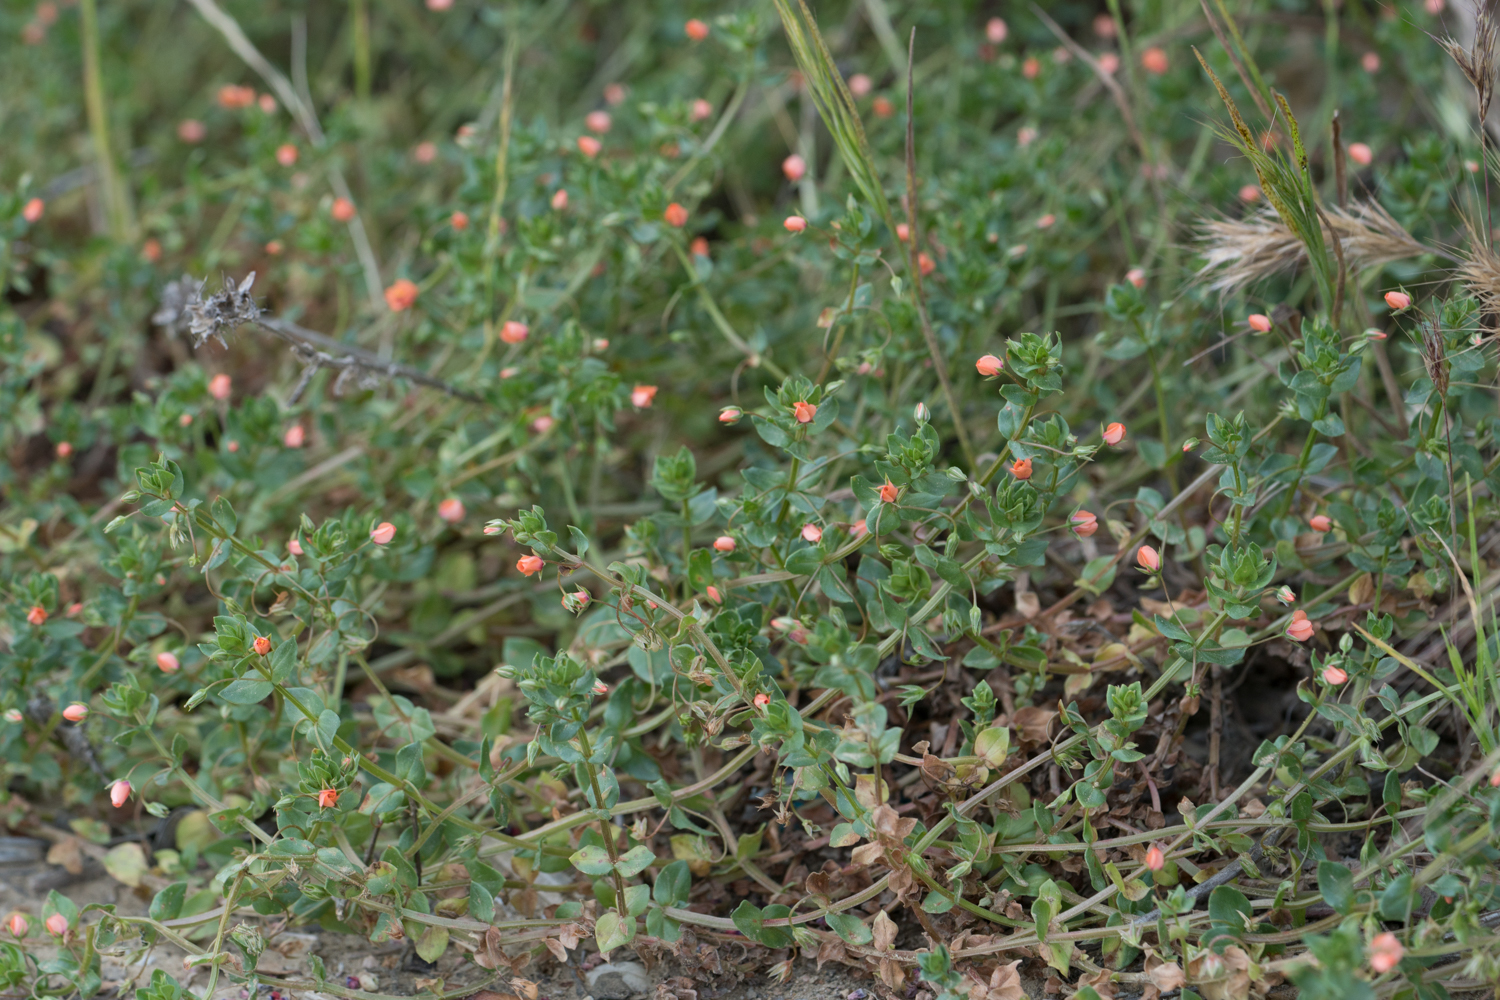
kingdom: Plantae
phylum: Tracheophyta
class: Magnoliopsida
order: Ericales
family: Primulaceae
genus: Lysimachia
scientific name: Lysimachia arvensis
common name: Scarlet pimpernel
